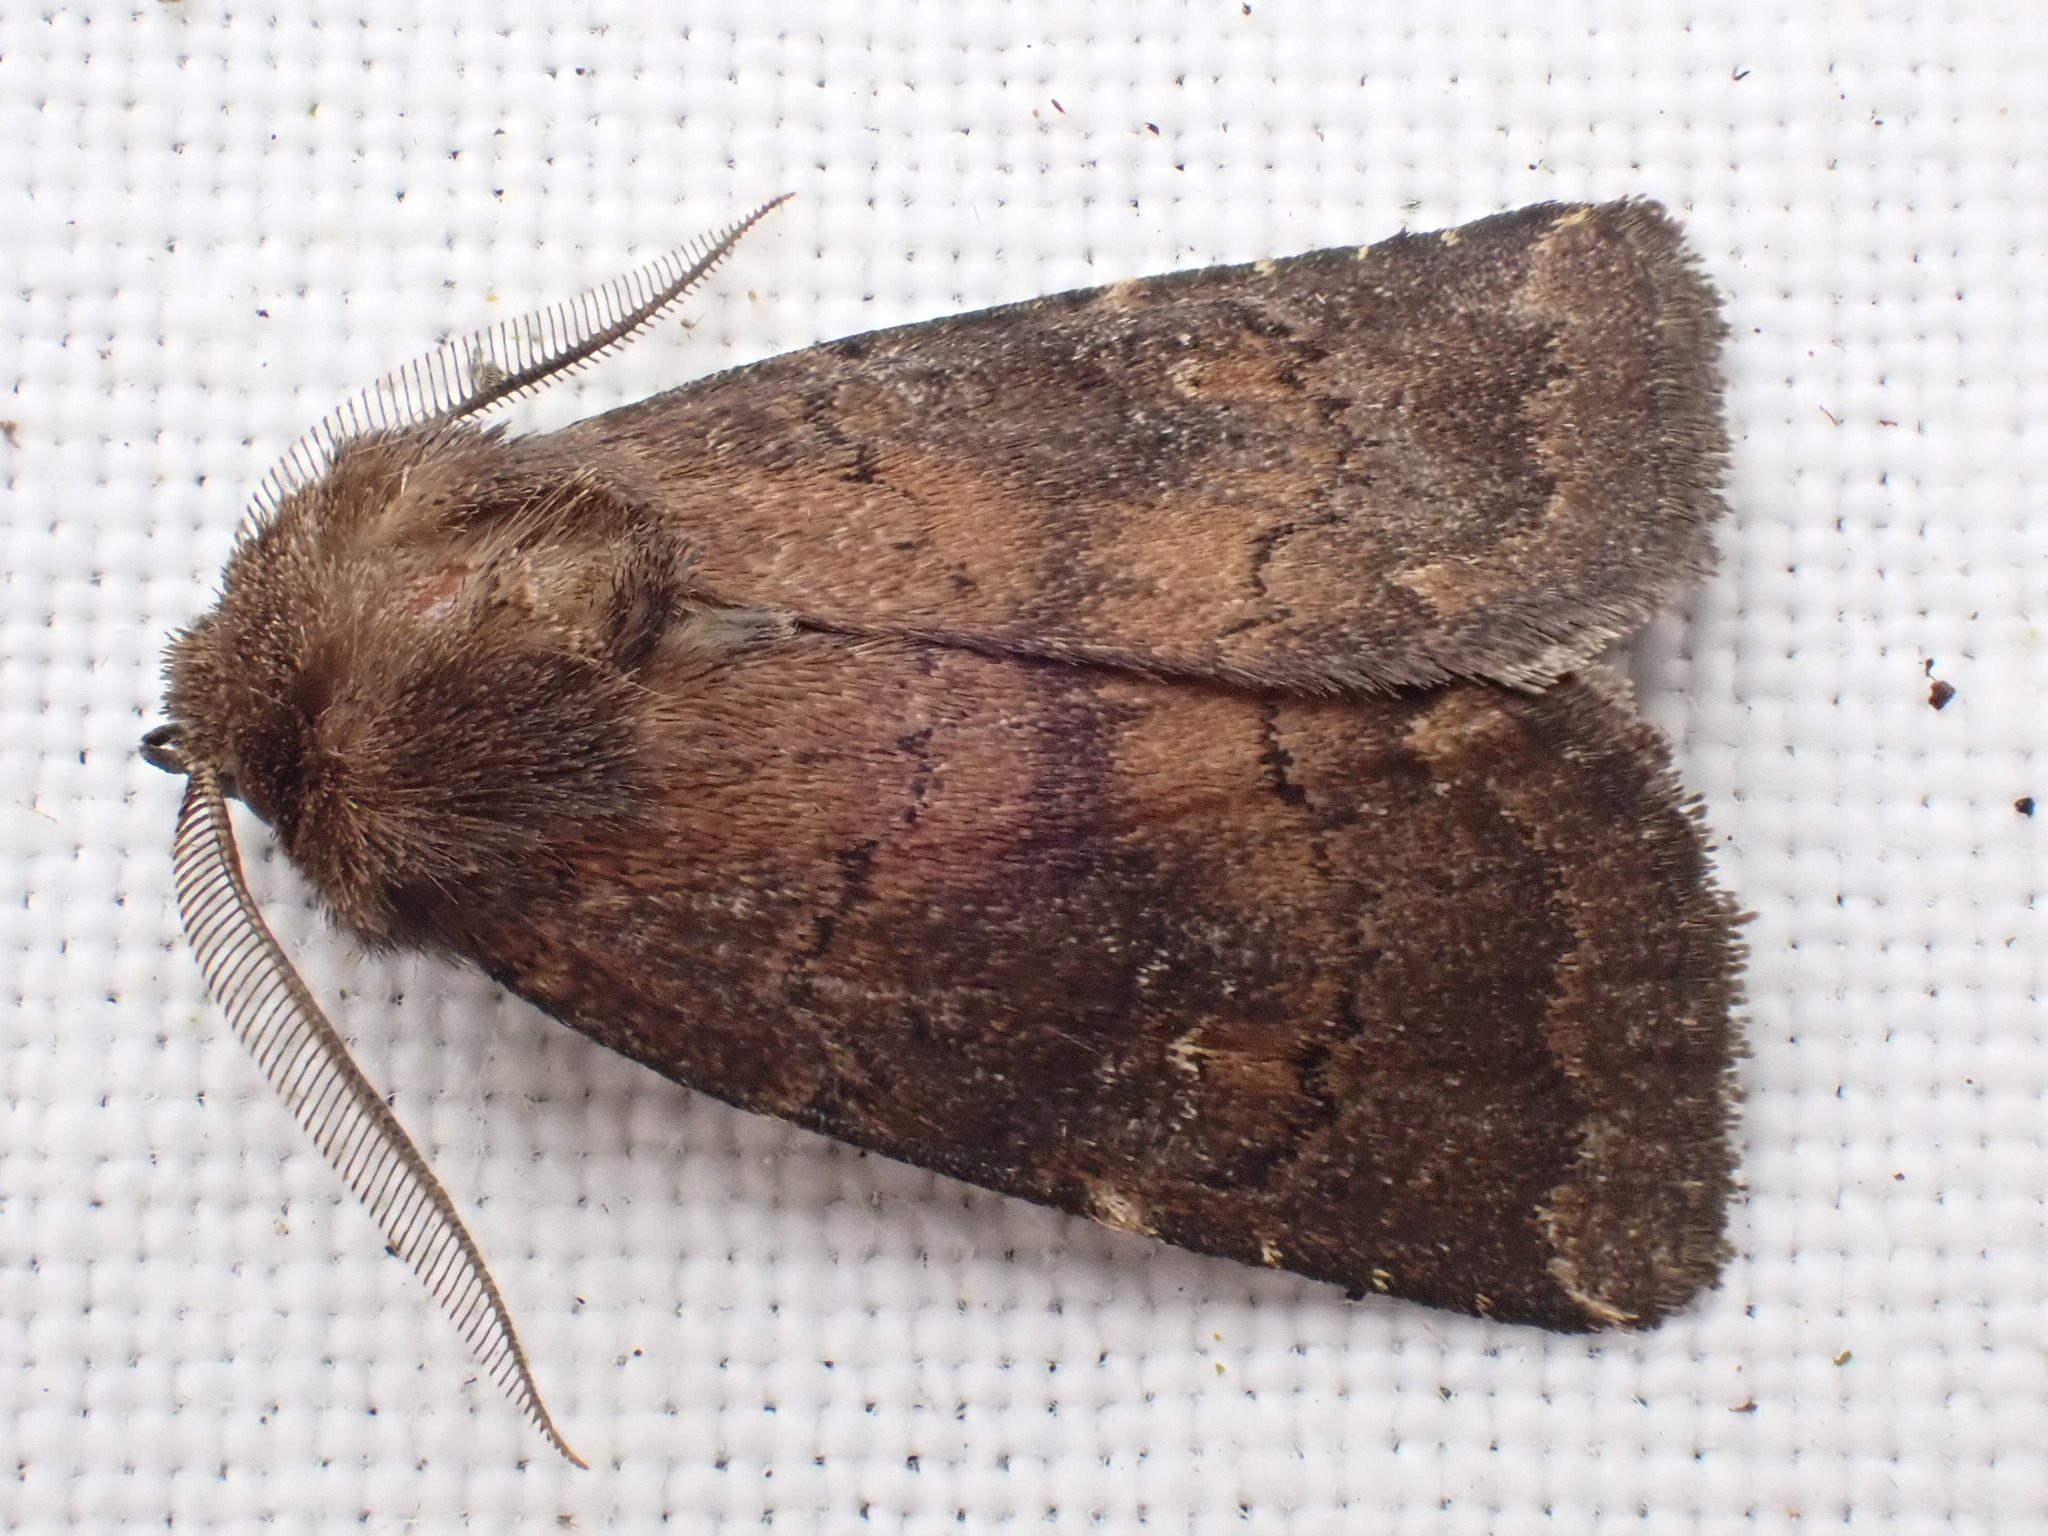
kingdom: Animalia
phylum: Arthropoda
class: Insecta
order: Lepidoptera
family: Noctuidae
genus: Charanyca
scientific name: Charanyca ferruginea
